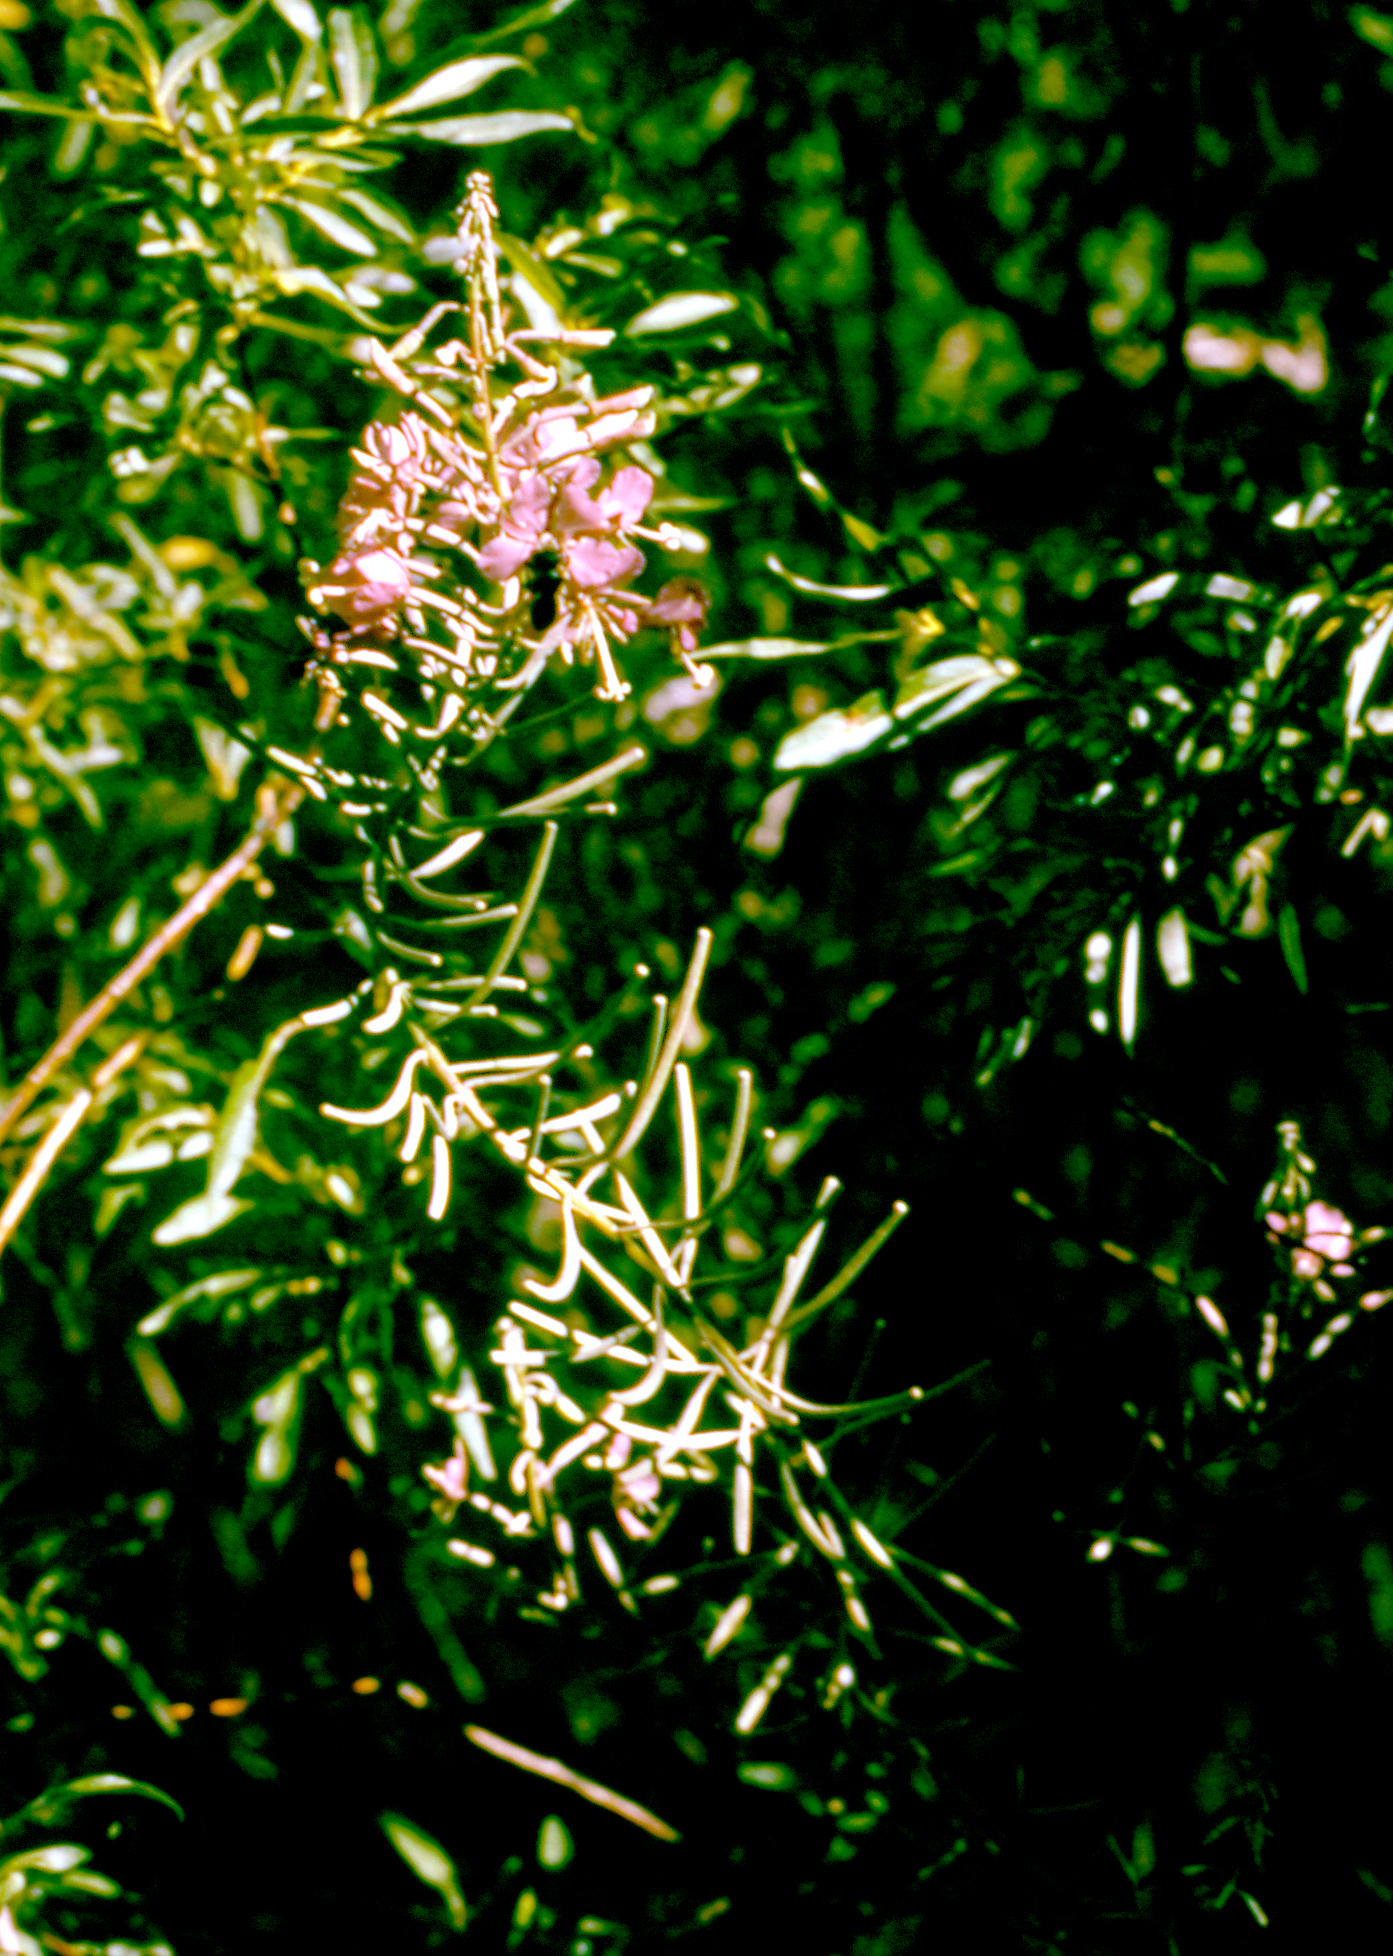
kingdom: Plantae
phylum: Tracheophyta
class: Magnoliopsida
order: Myrtales
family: Onagraceae
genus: Chamaenerion
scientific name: Chamaenerion angustifolium
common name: Fireweed
